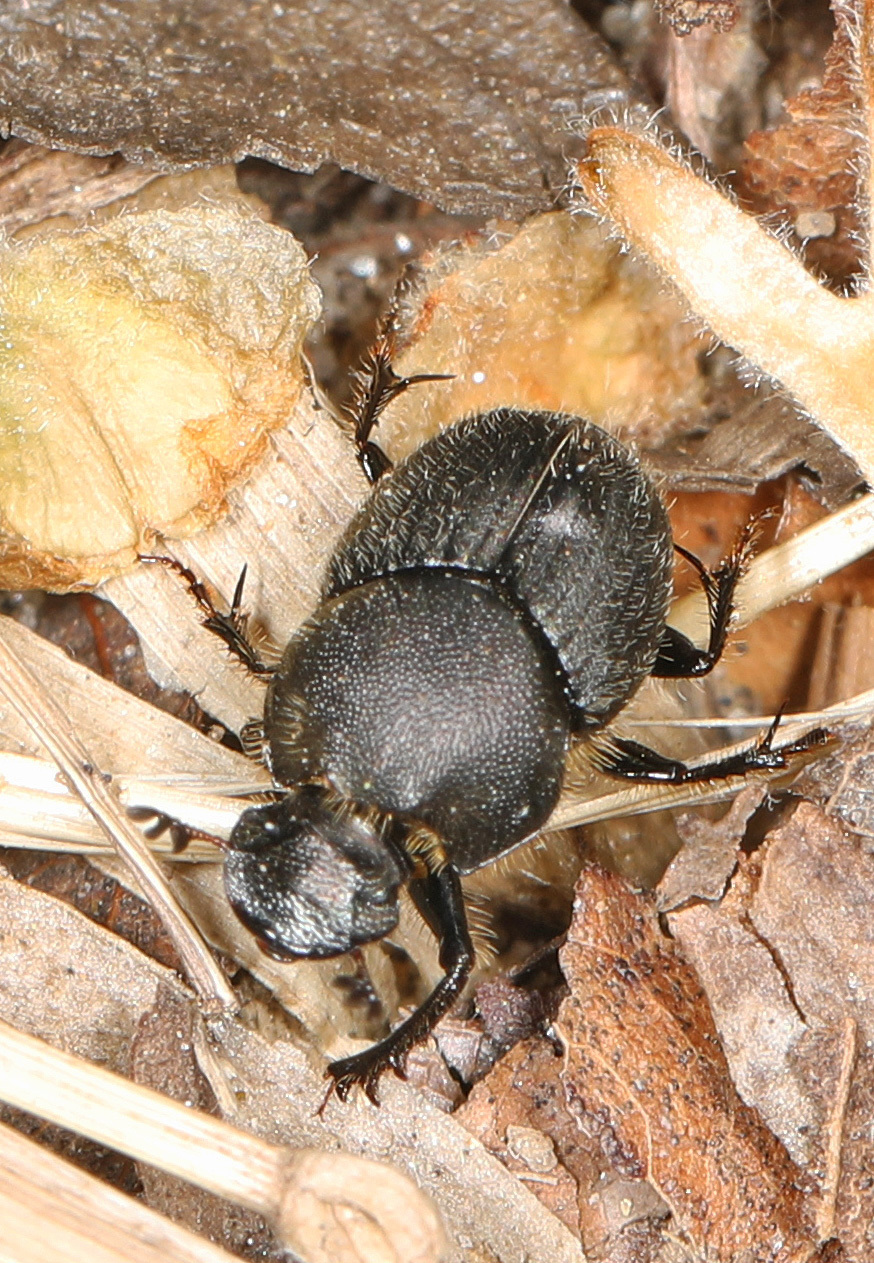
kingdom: Animalia
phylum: Arthropoda
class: Insecta
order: Coleoptera
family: Scarabaeidae
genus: Onthophagus
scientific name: Onthophagus hecate
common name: Scooped scarab
